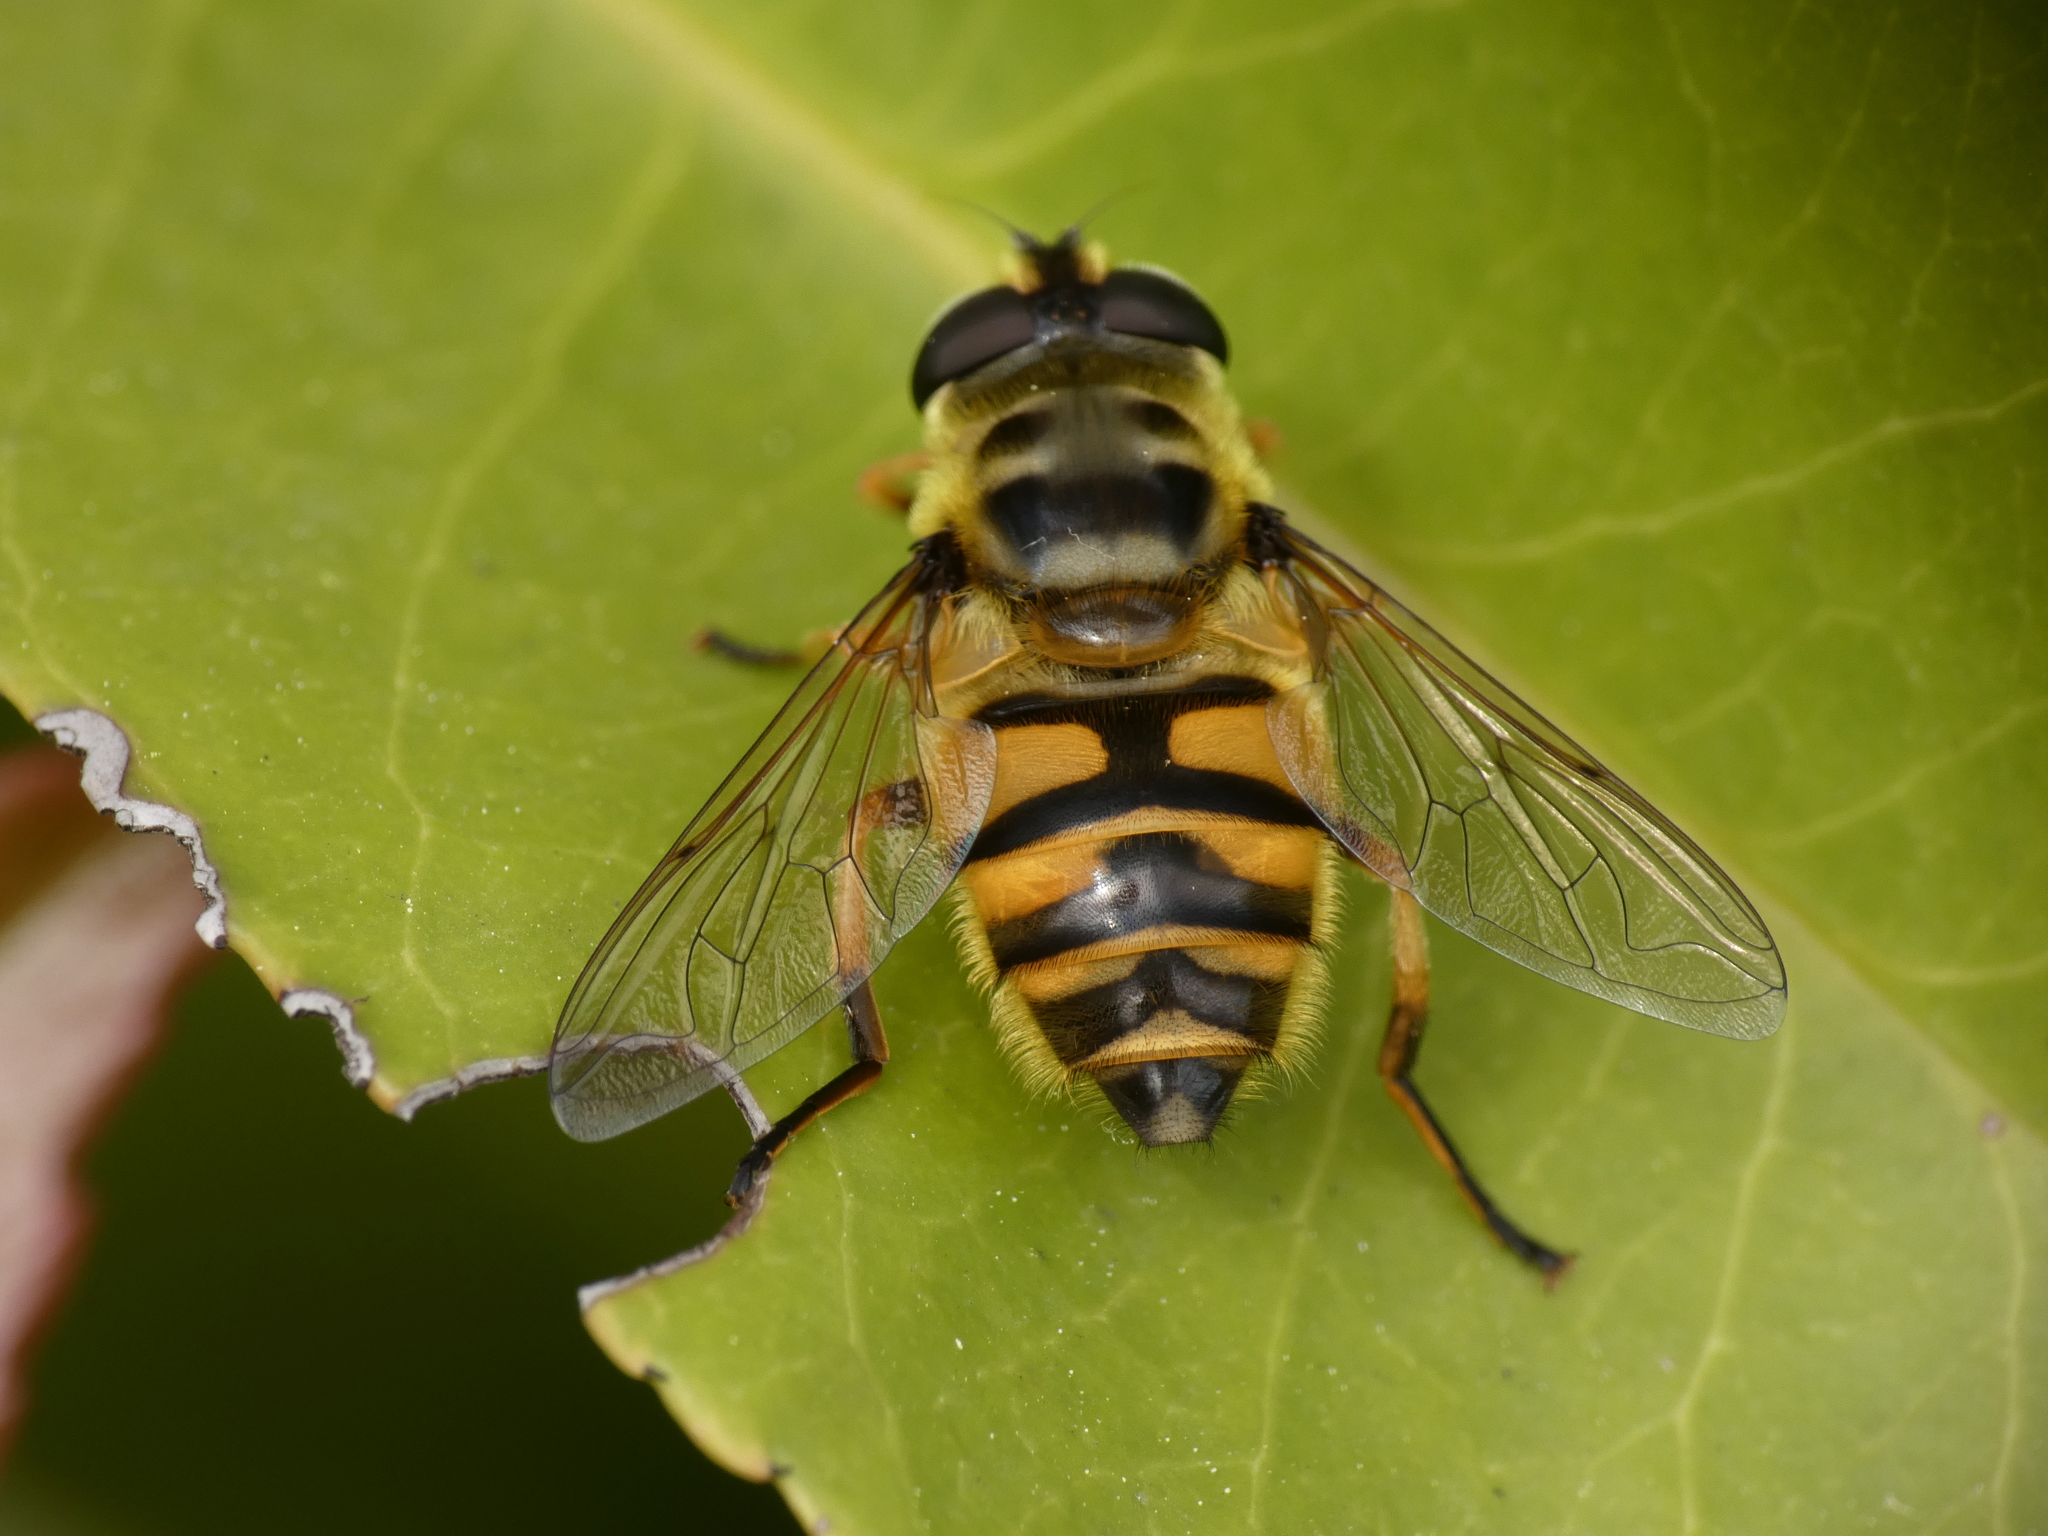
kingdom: Animalia
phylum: Arthropoda
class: Insecta
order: Diptera
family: Syrphidae
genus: Myathropa
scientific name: Myathropa florea
